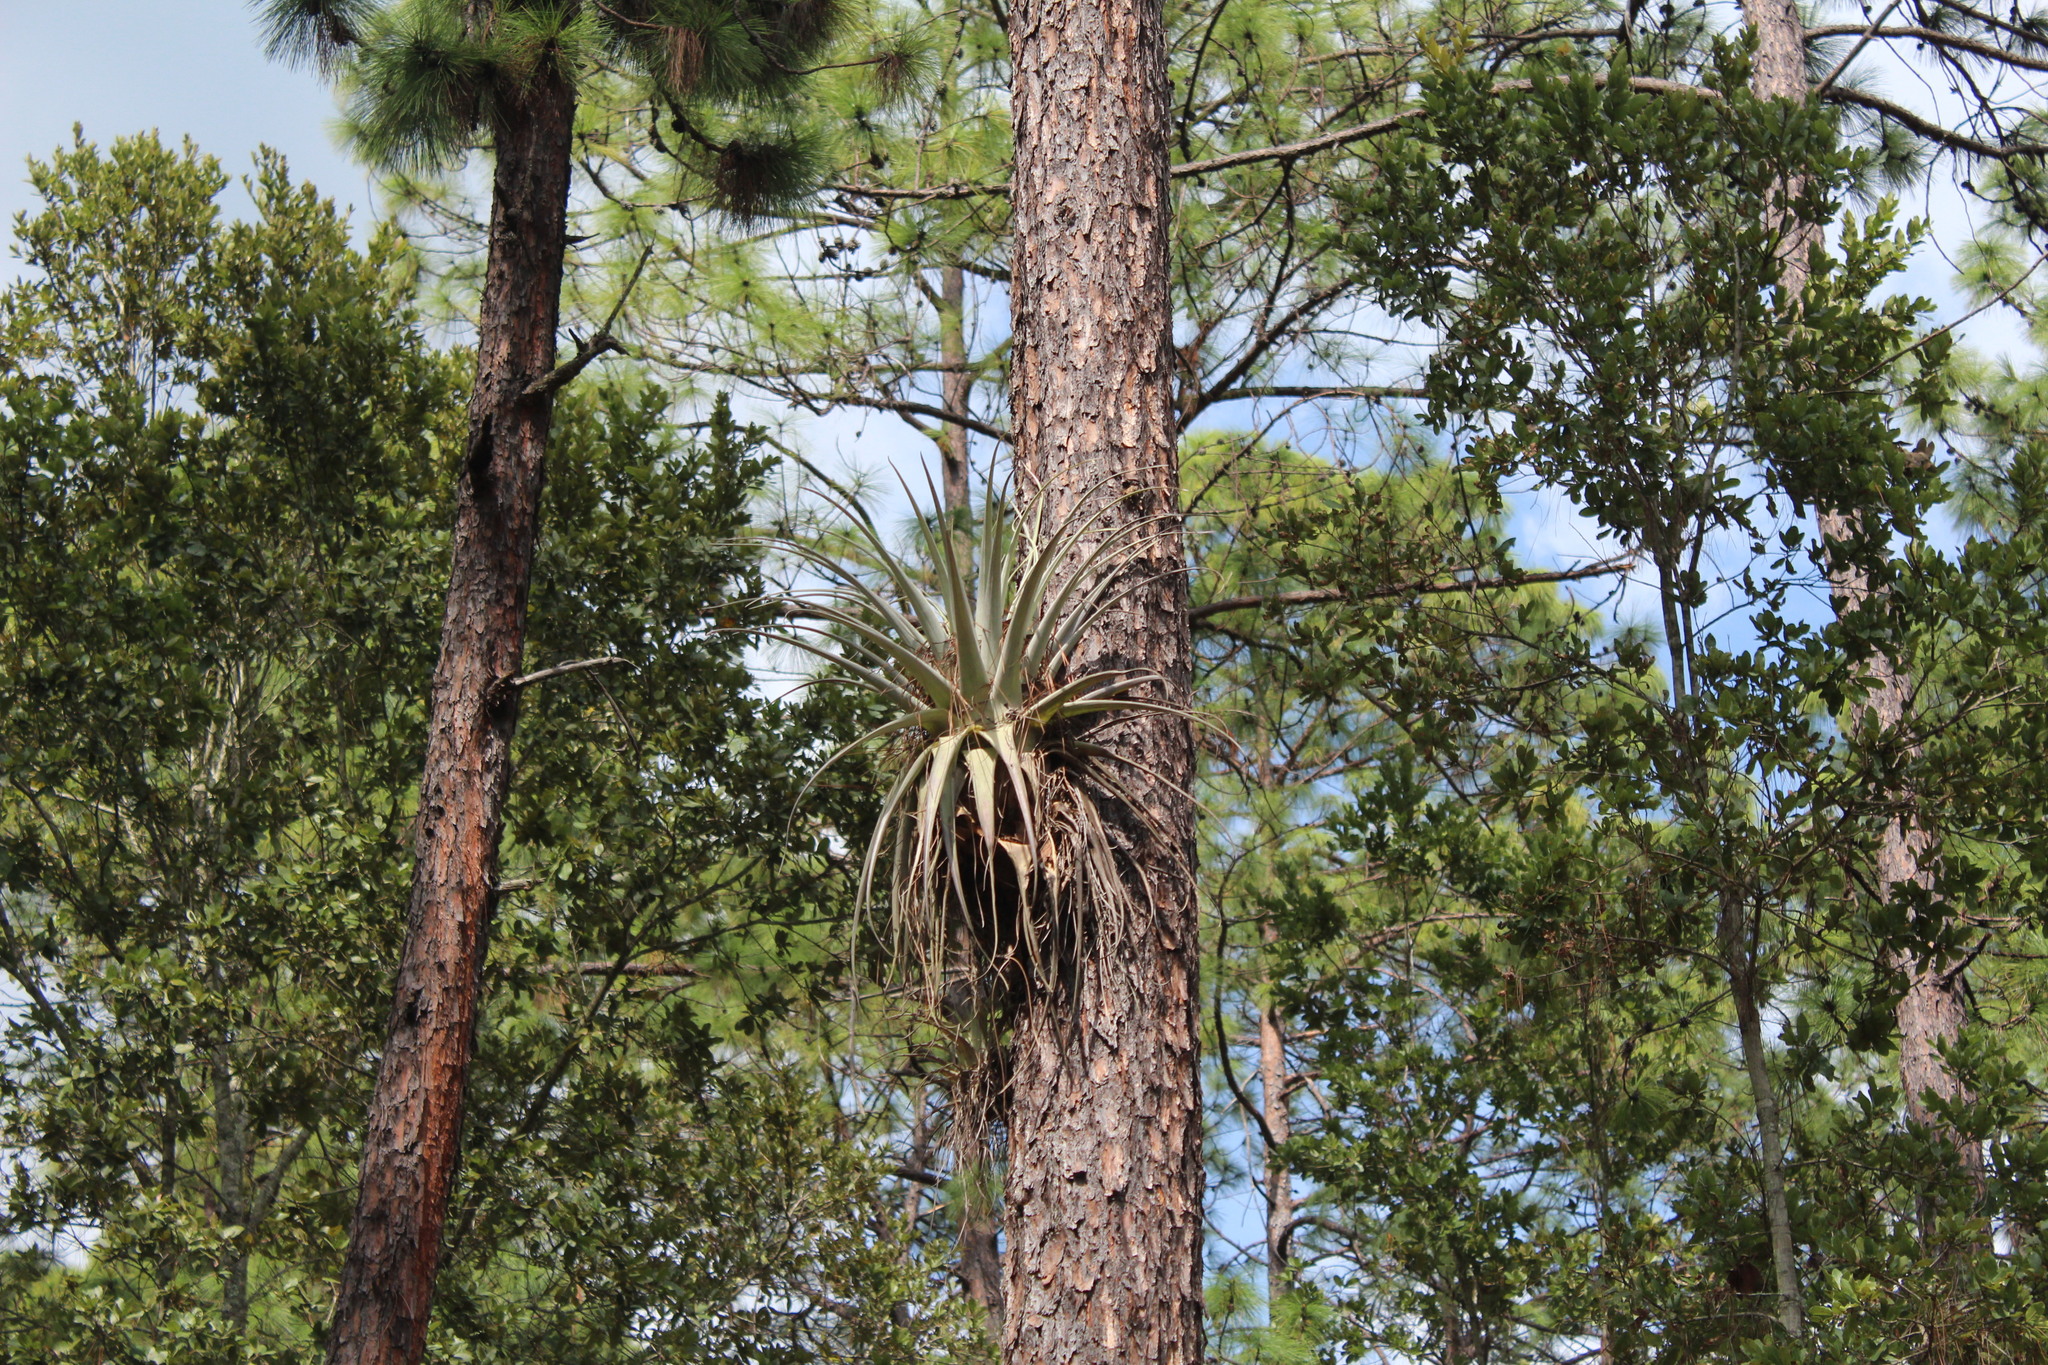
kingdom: Plantae
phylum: Tracheophyta
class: Liliopsida
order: Poales
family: Bromeliaceae
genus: Tillandsia
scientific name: Tillandsia fasciculata
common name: Giant airplant
